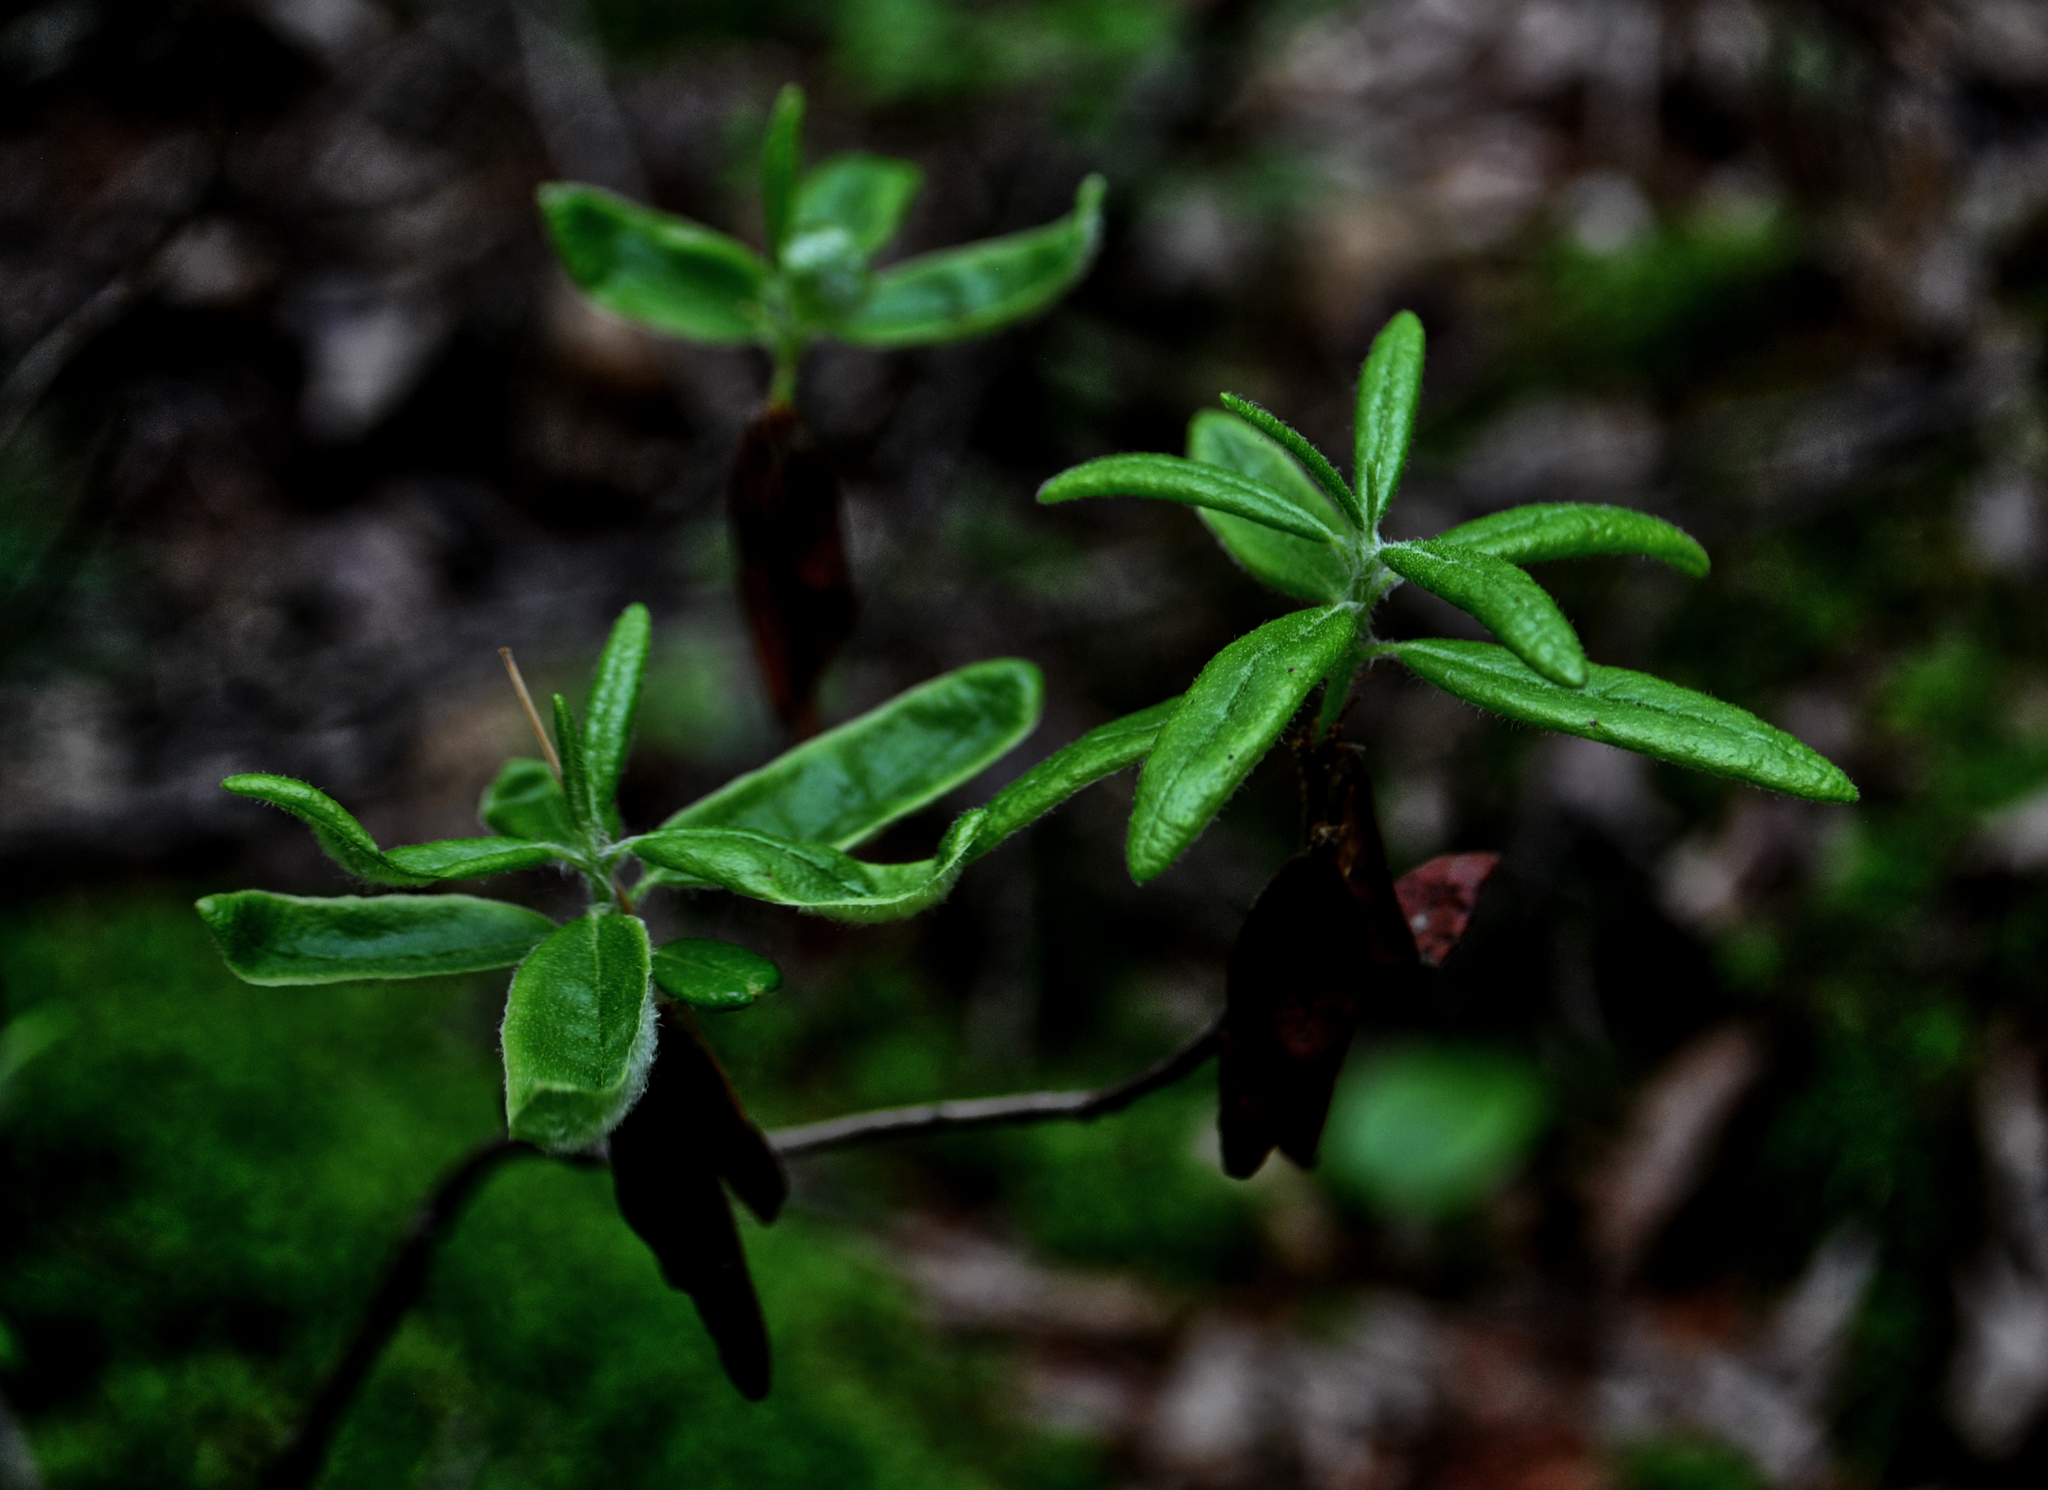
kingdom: Plantae
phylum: Tracheophyta
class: Magnoliopsida
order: Ericales
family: Ericaceae
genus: Rhododendron
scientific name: Rhododendron groenlandicum
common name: Bog labrador tea
